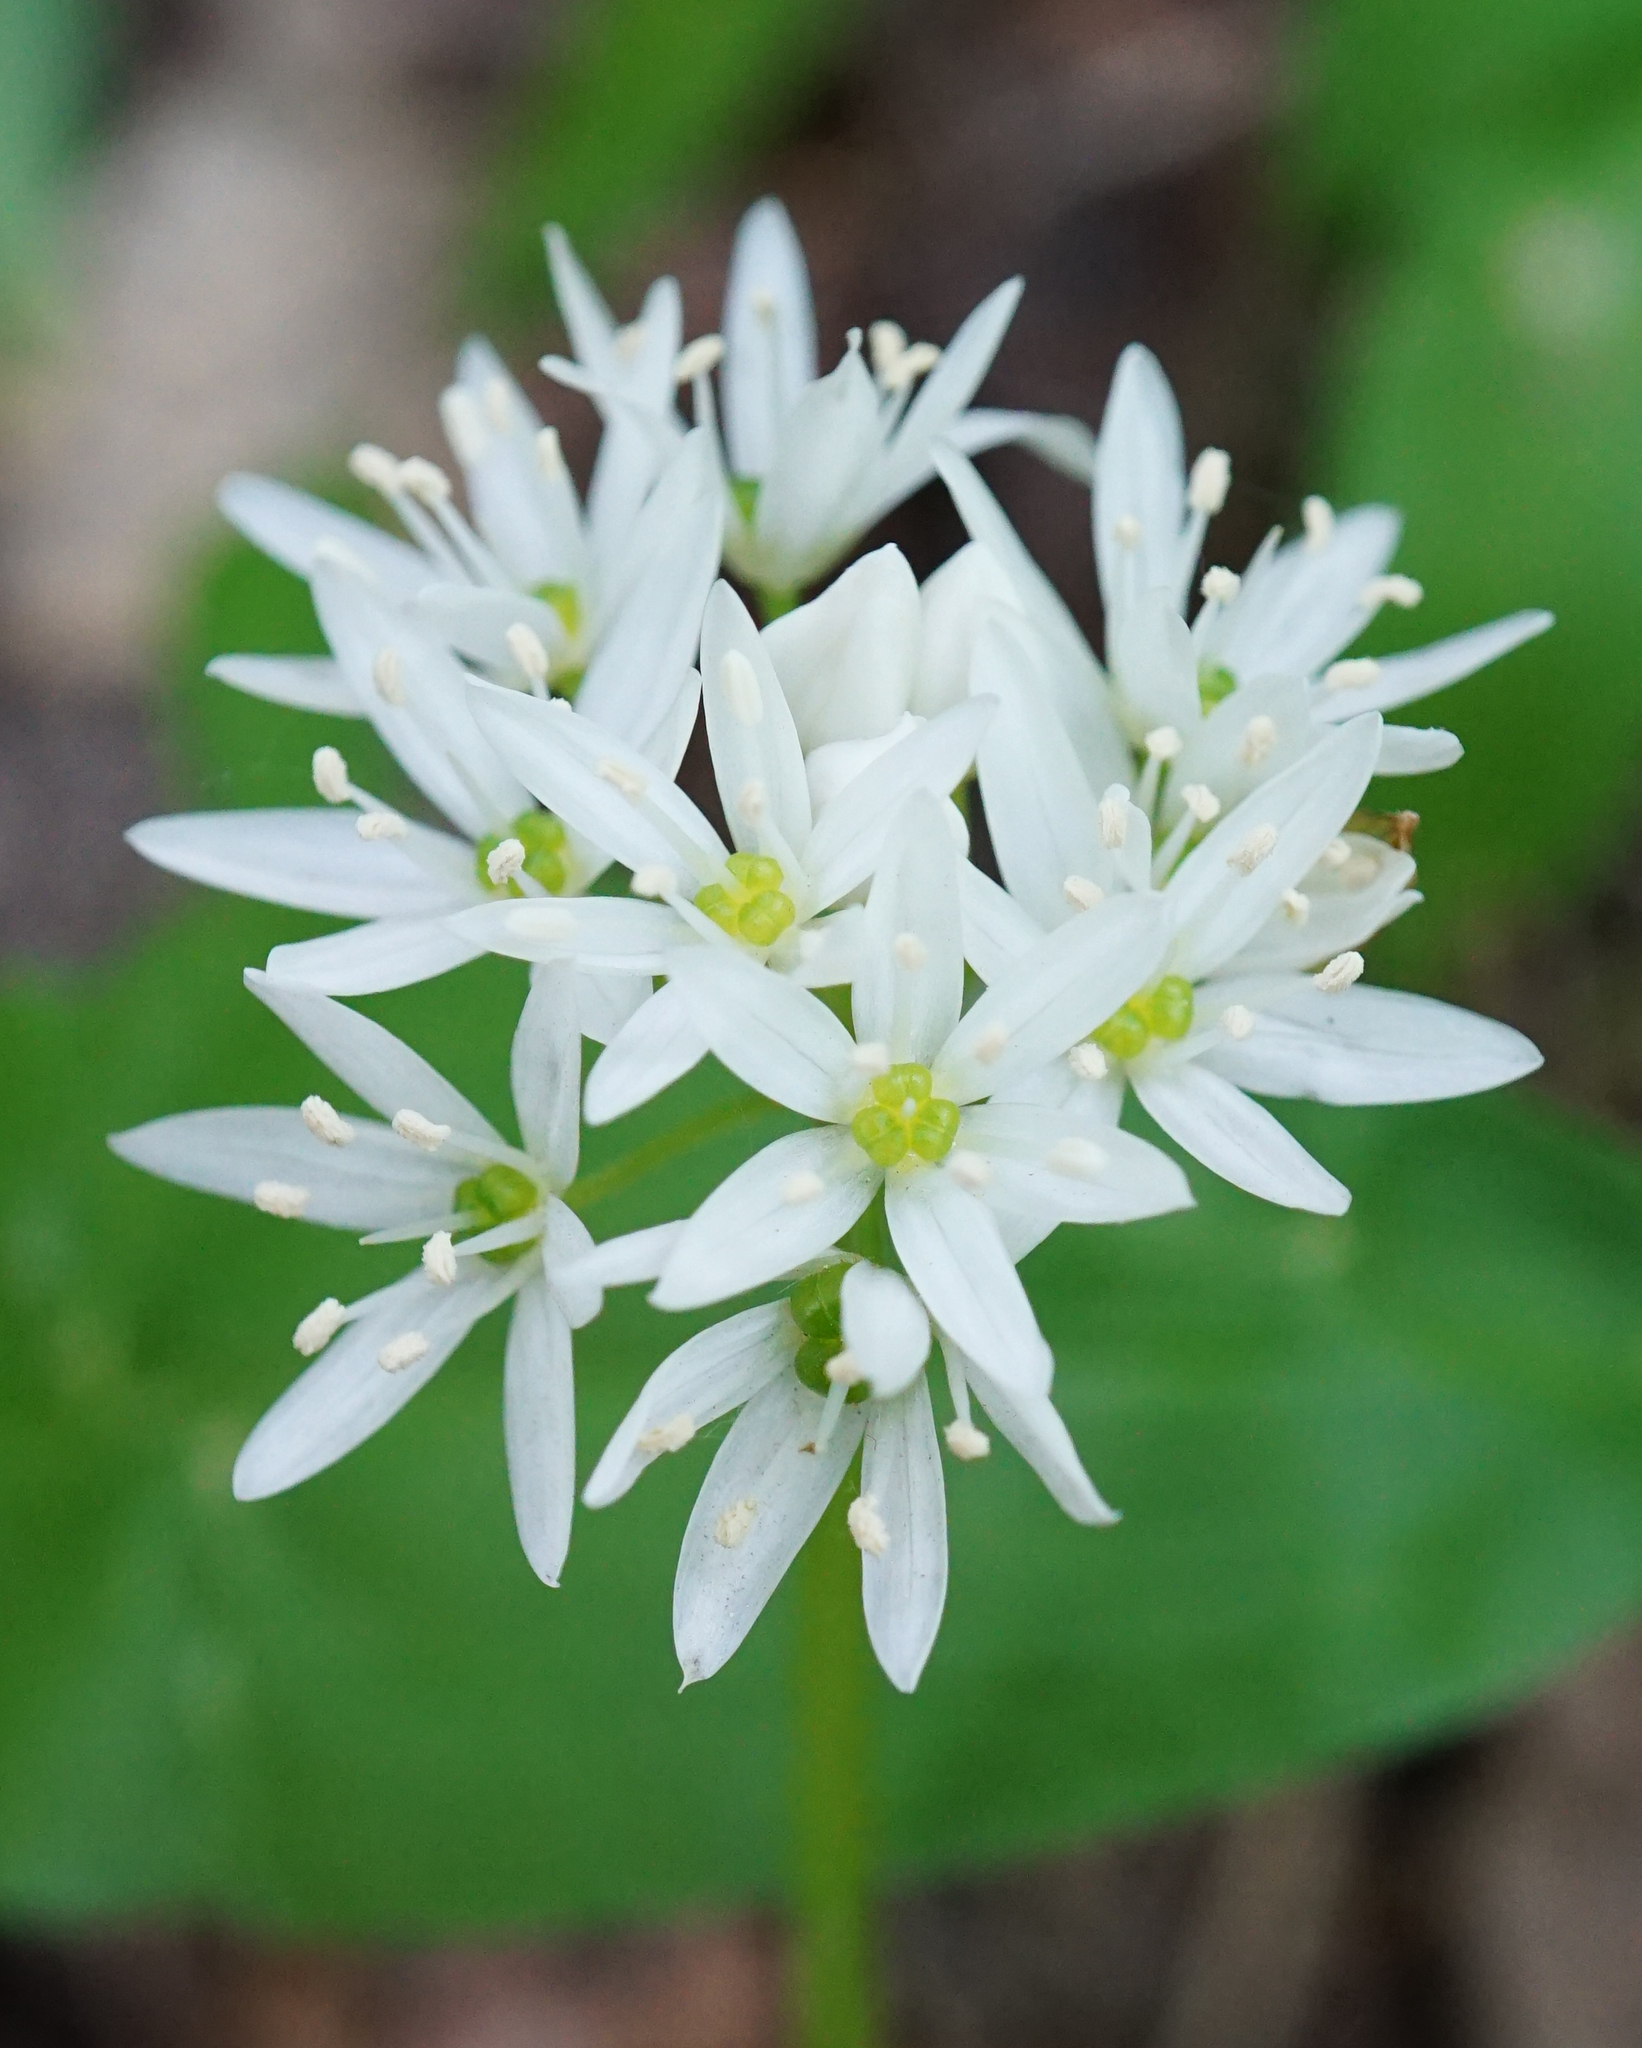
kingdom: Plantae
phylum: Tracheophyta
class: Liliopsida
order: Asparagales
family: Amaryllidaceae
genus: Allium
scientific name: Allium ursinum
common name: Ramsons
